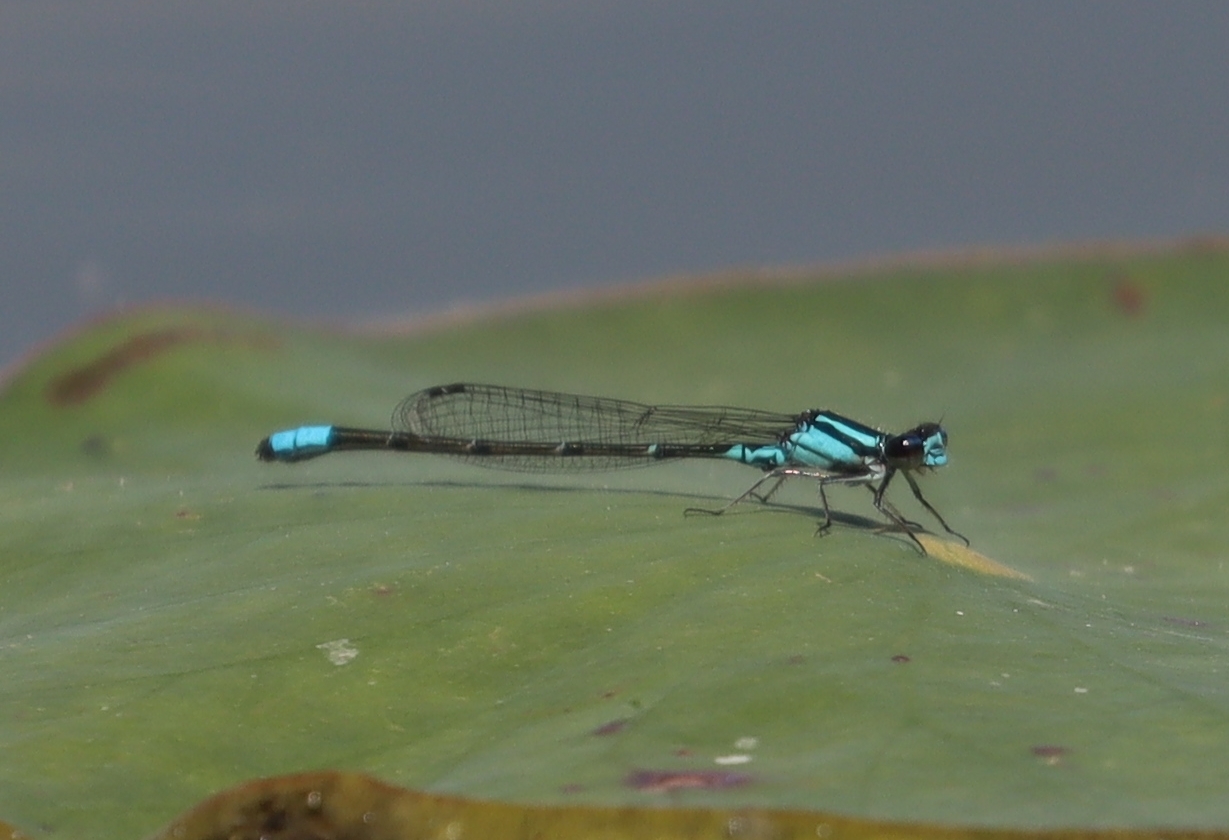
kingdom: Animalia
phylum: Arthropoda
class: Insecta
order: Odonata
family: Coenagrionidae
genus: Enallagma
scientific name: Enallagma geminatum
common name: Skimming bluet
